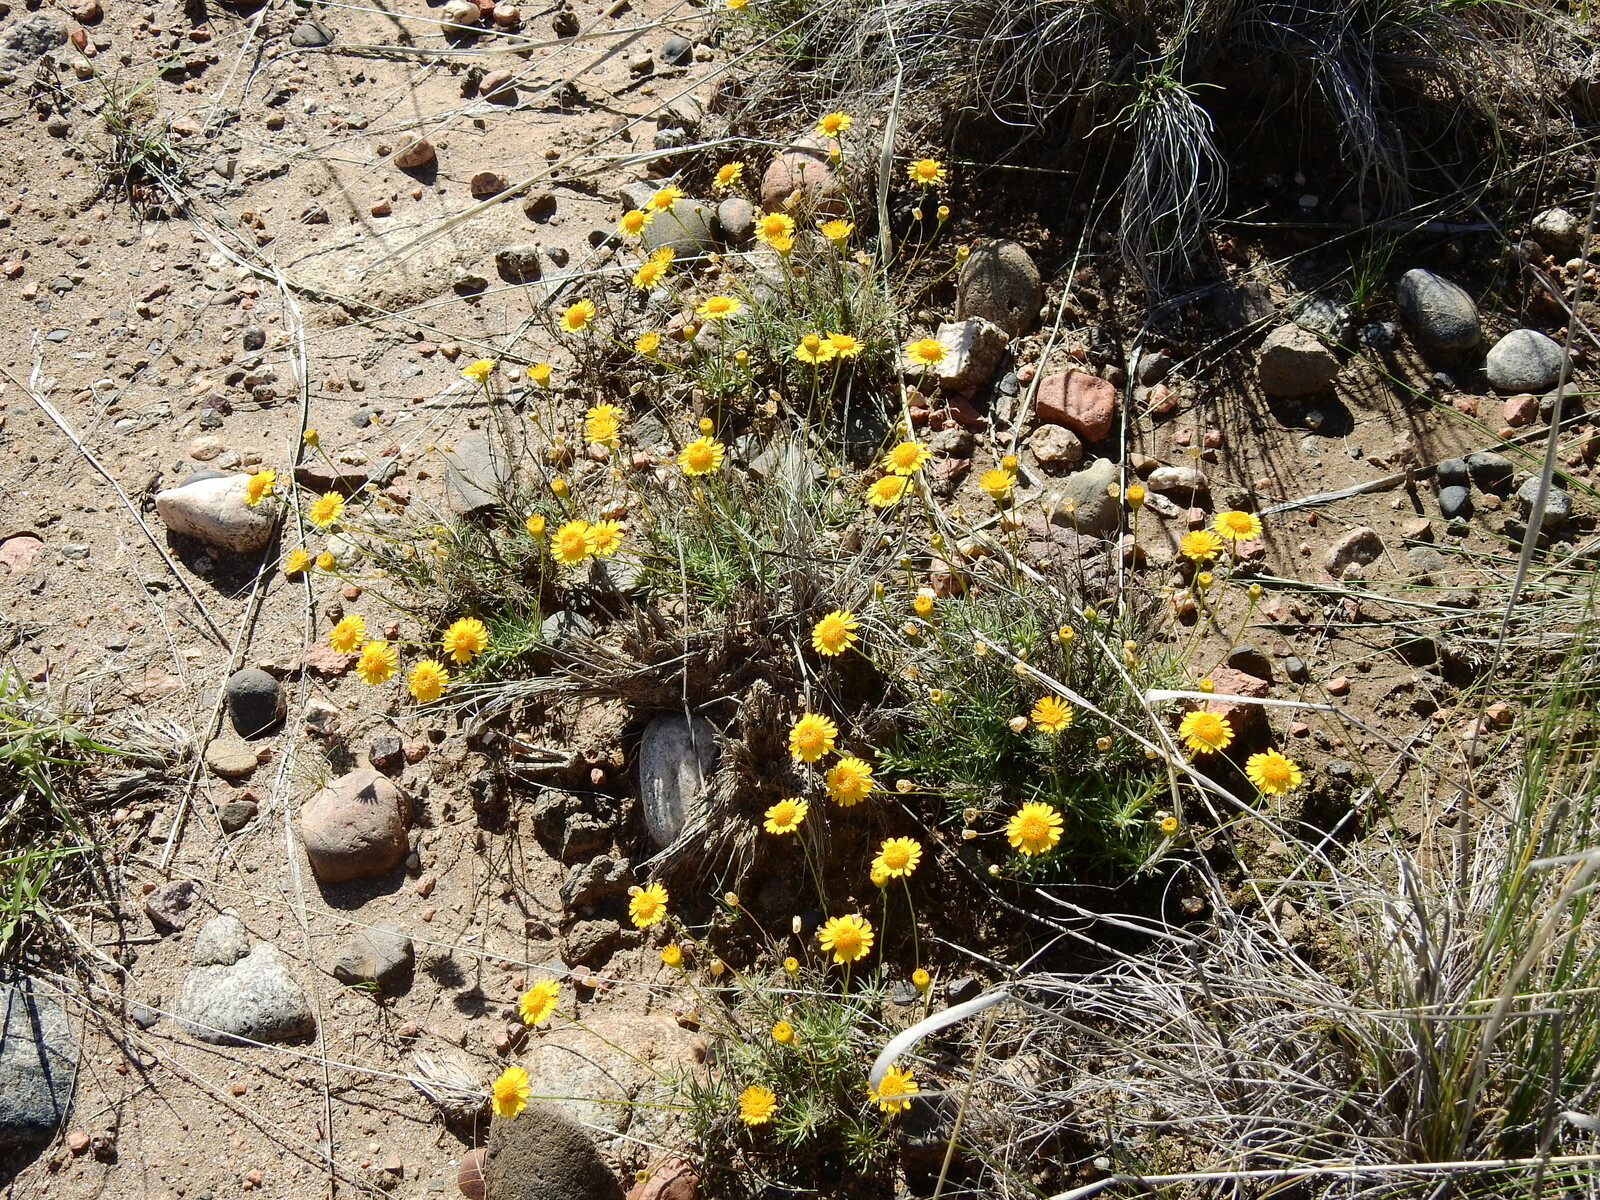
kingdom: Plantae
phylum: Tracheophyta
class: Magnoliopsida
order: Asterales
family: Asteraceae
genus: Thymophylla
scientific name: Thymophylla pentachaeta
